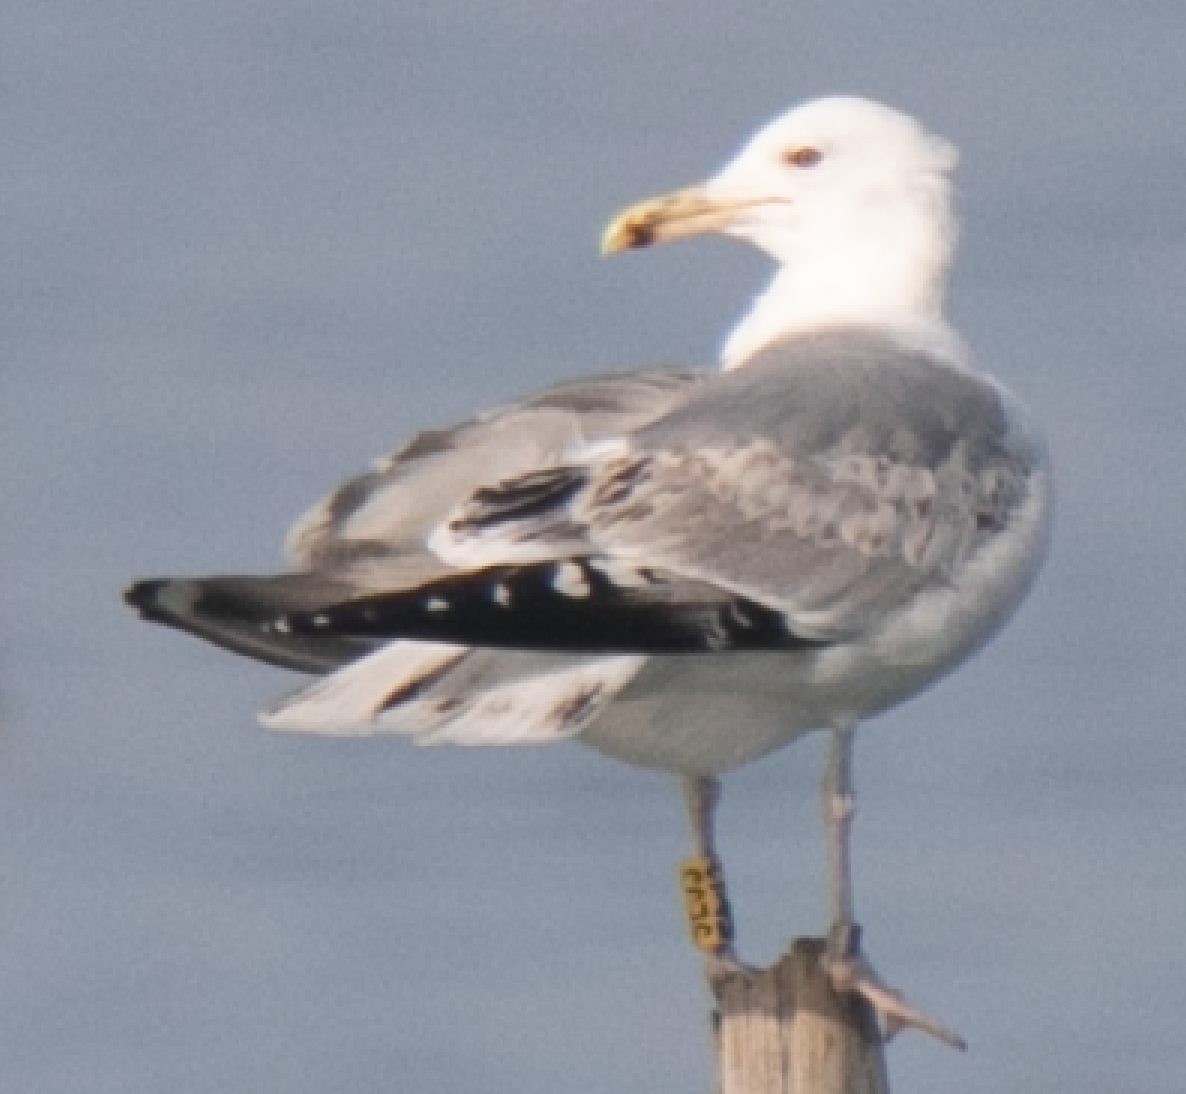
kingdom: Animalia
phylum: Chordata
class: Aves
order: Charadriiformes
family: Laridae
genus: Larus
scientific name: Larus argentatus
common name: Herring gull
